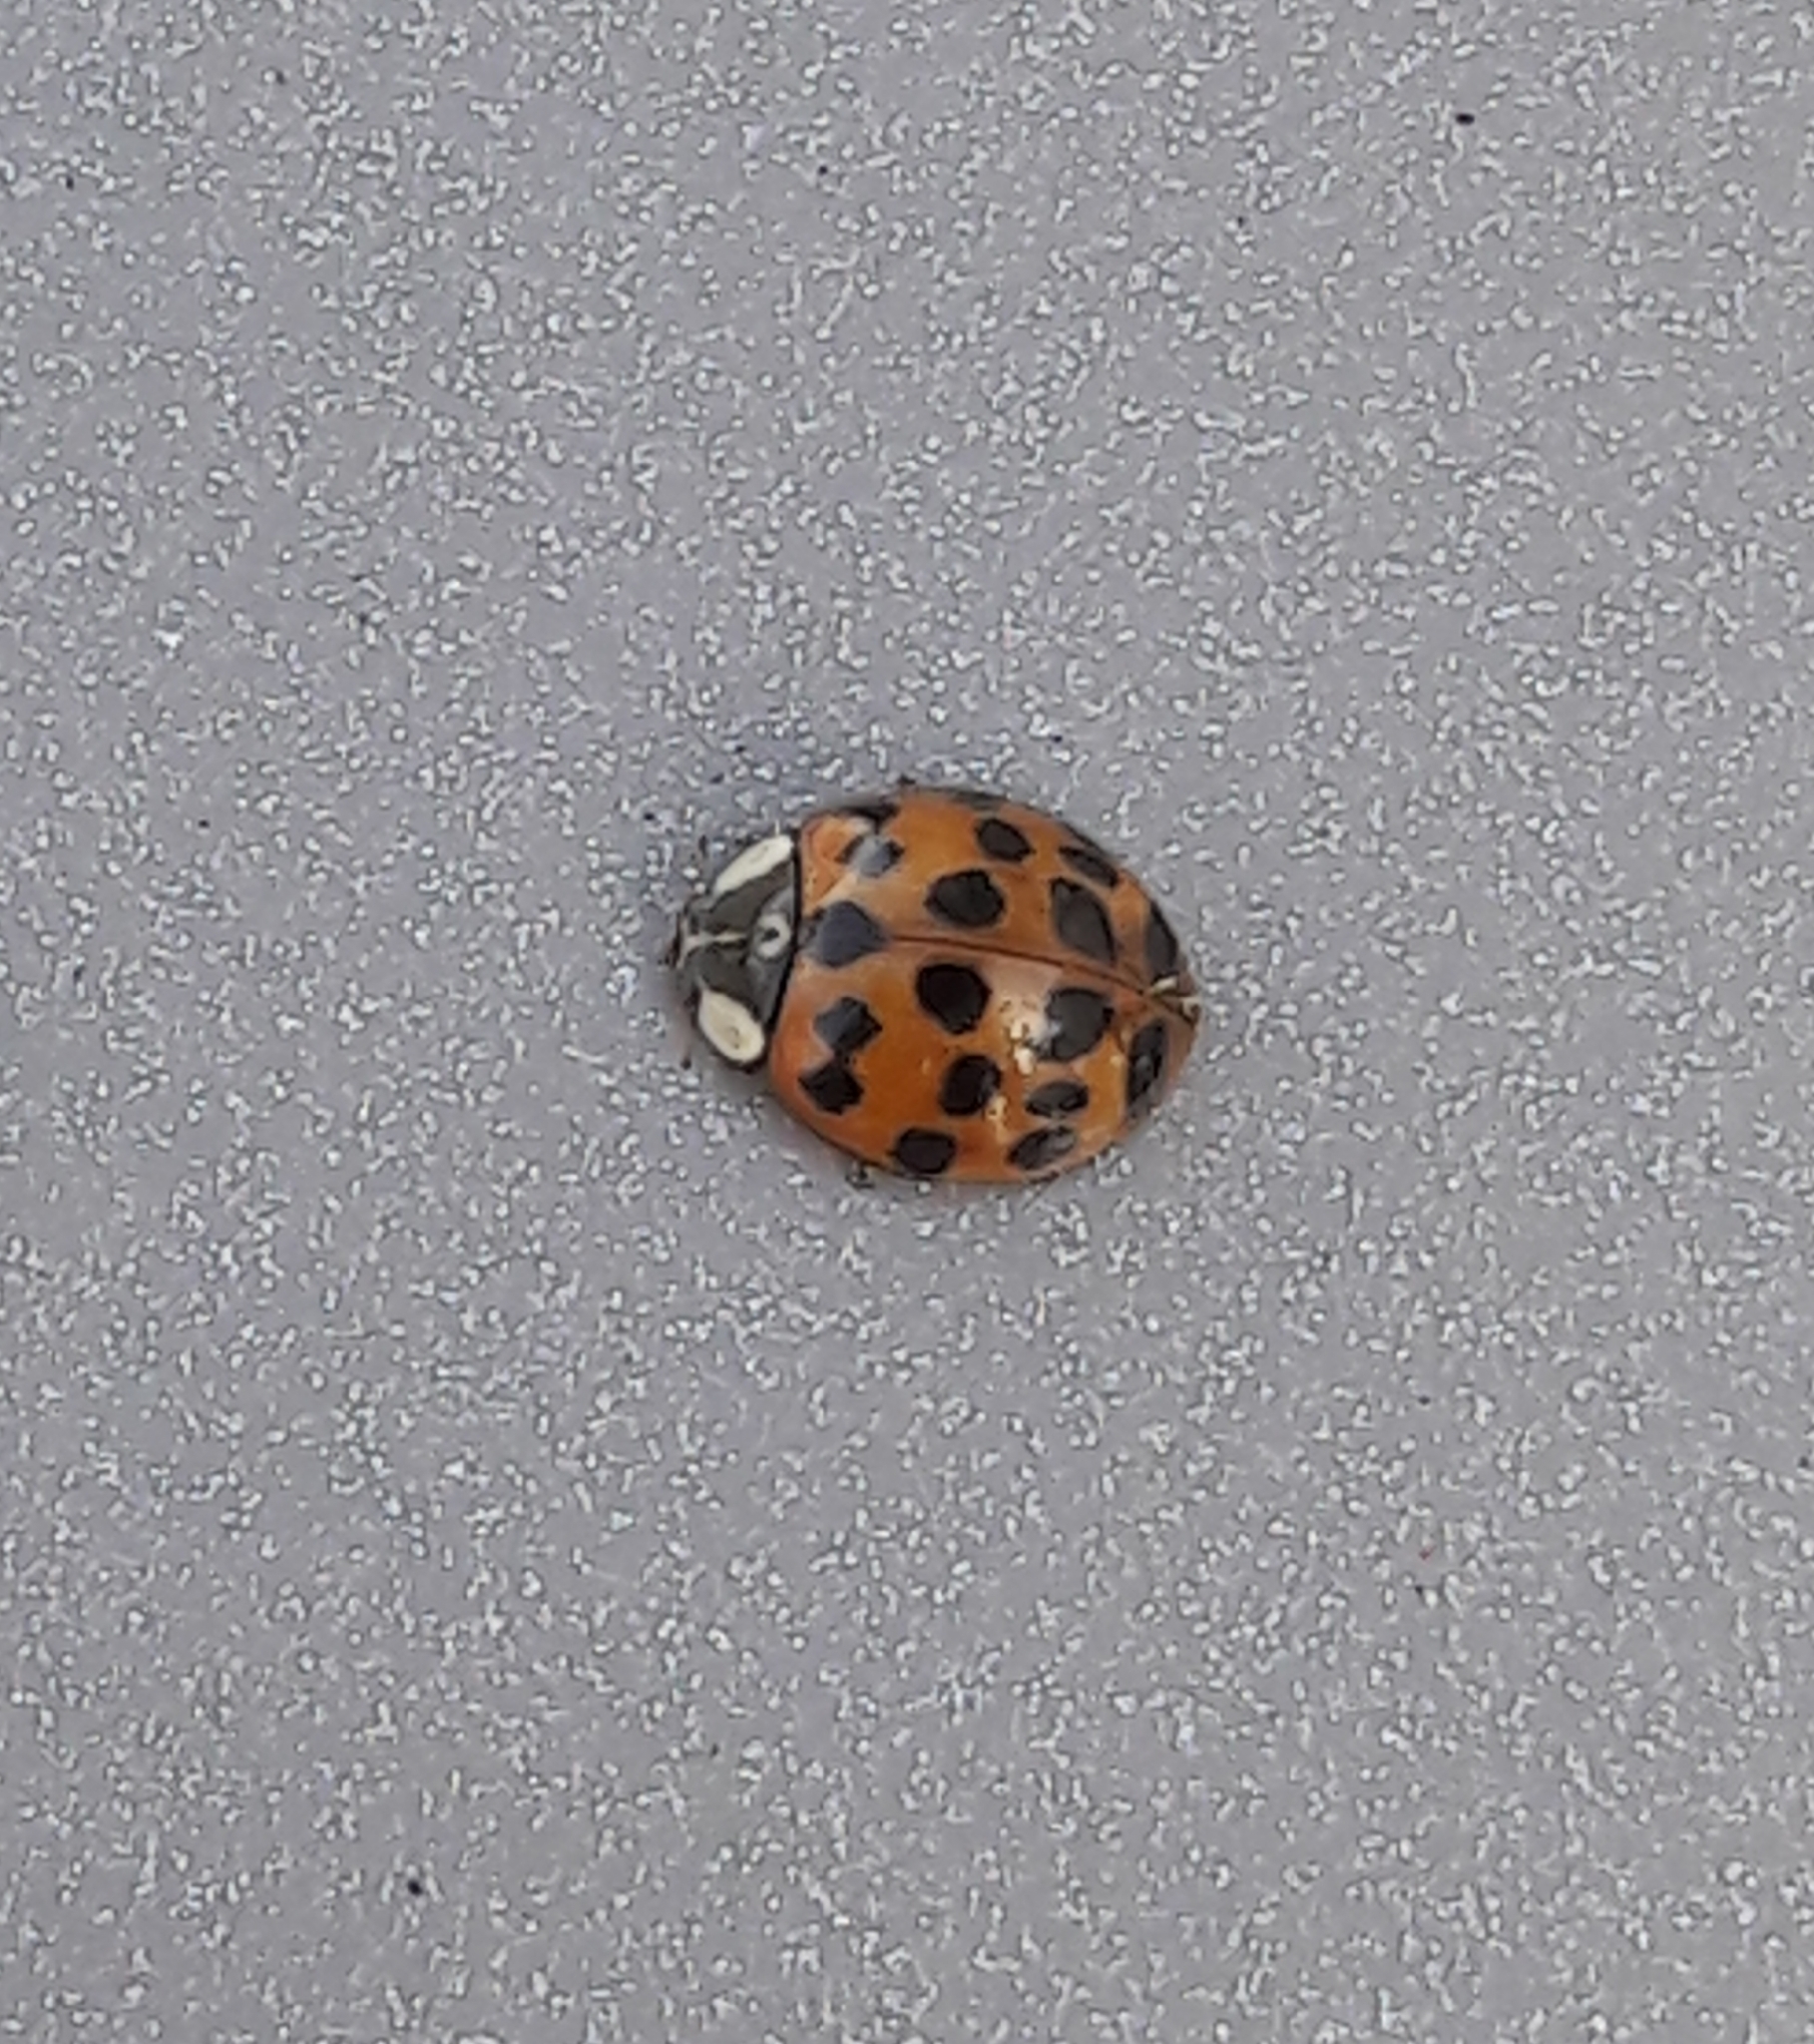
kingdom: Animalia
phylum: Arthropoda
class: Insecta
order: Coleoptera
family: Coccinellidae
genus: Harmonia
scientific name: Harmonia axyridis
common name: Harlequin ladybird
